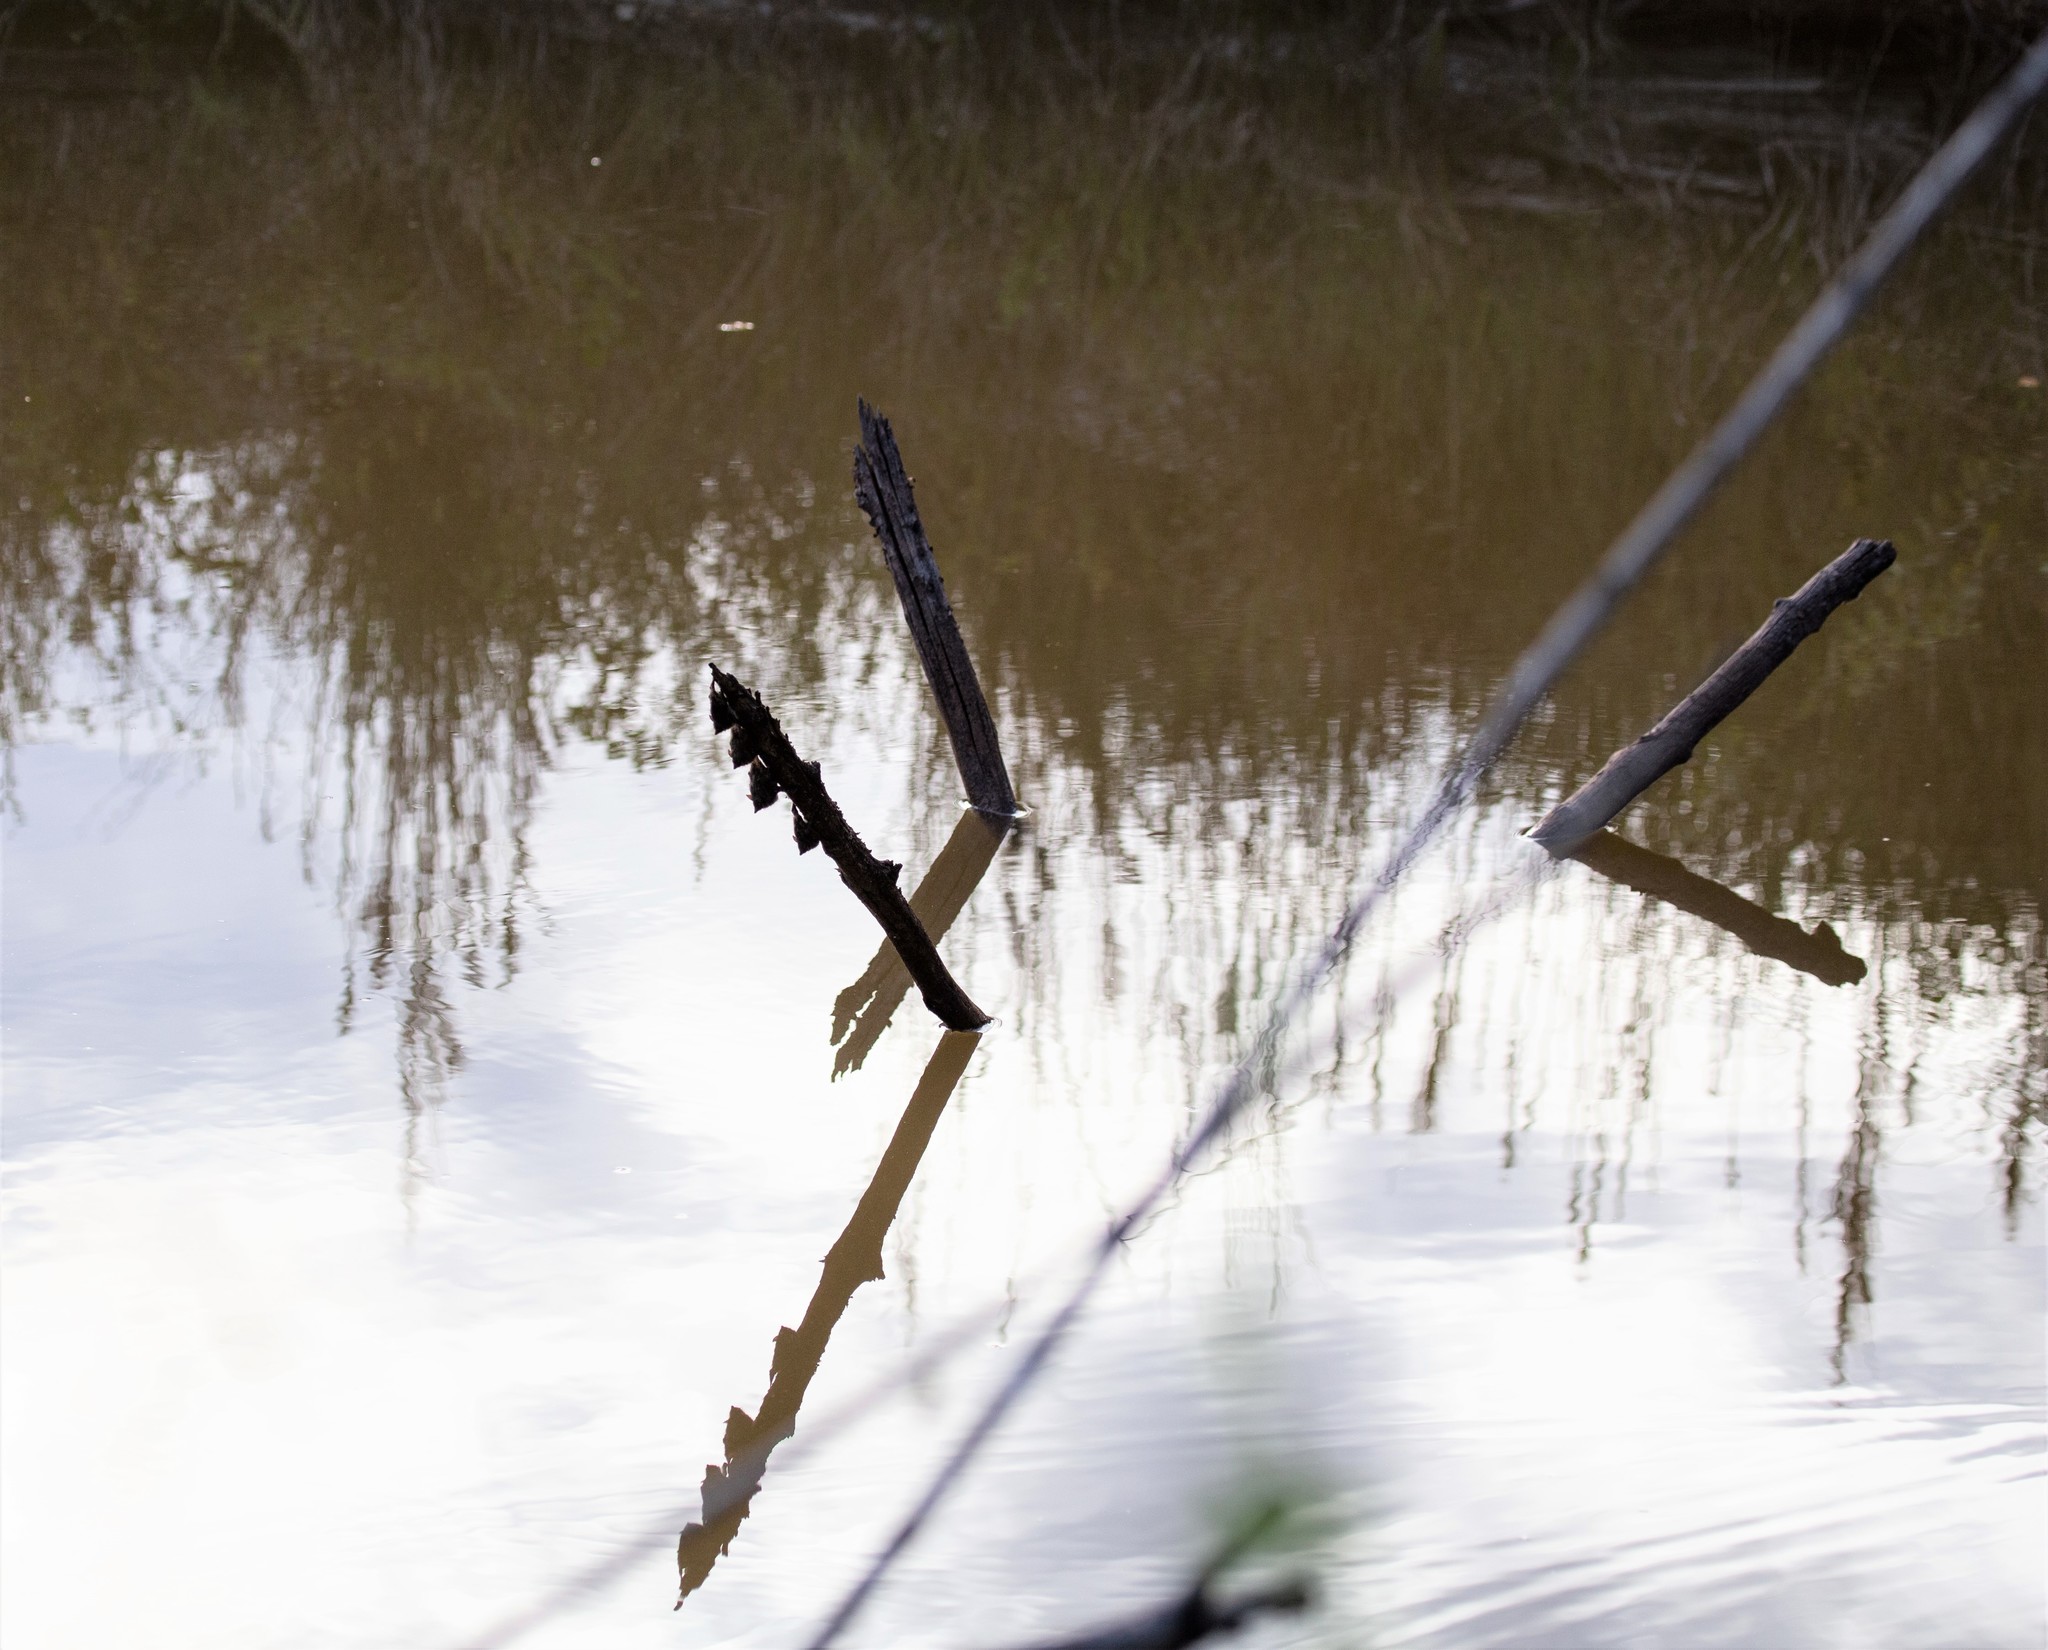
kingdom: Animalia
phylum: Chordata
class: Mammalia
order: Chiroptera
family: Emballonuridae
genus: Rhynchonycteris
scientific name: Rhynchonycteris naso
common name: Proboscis bat
